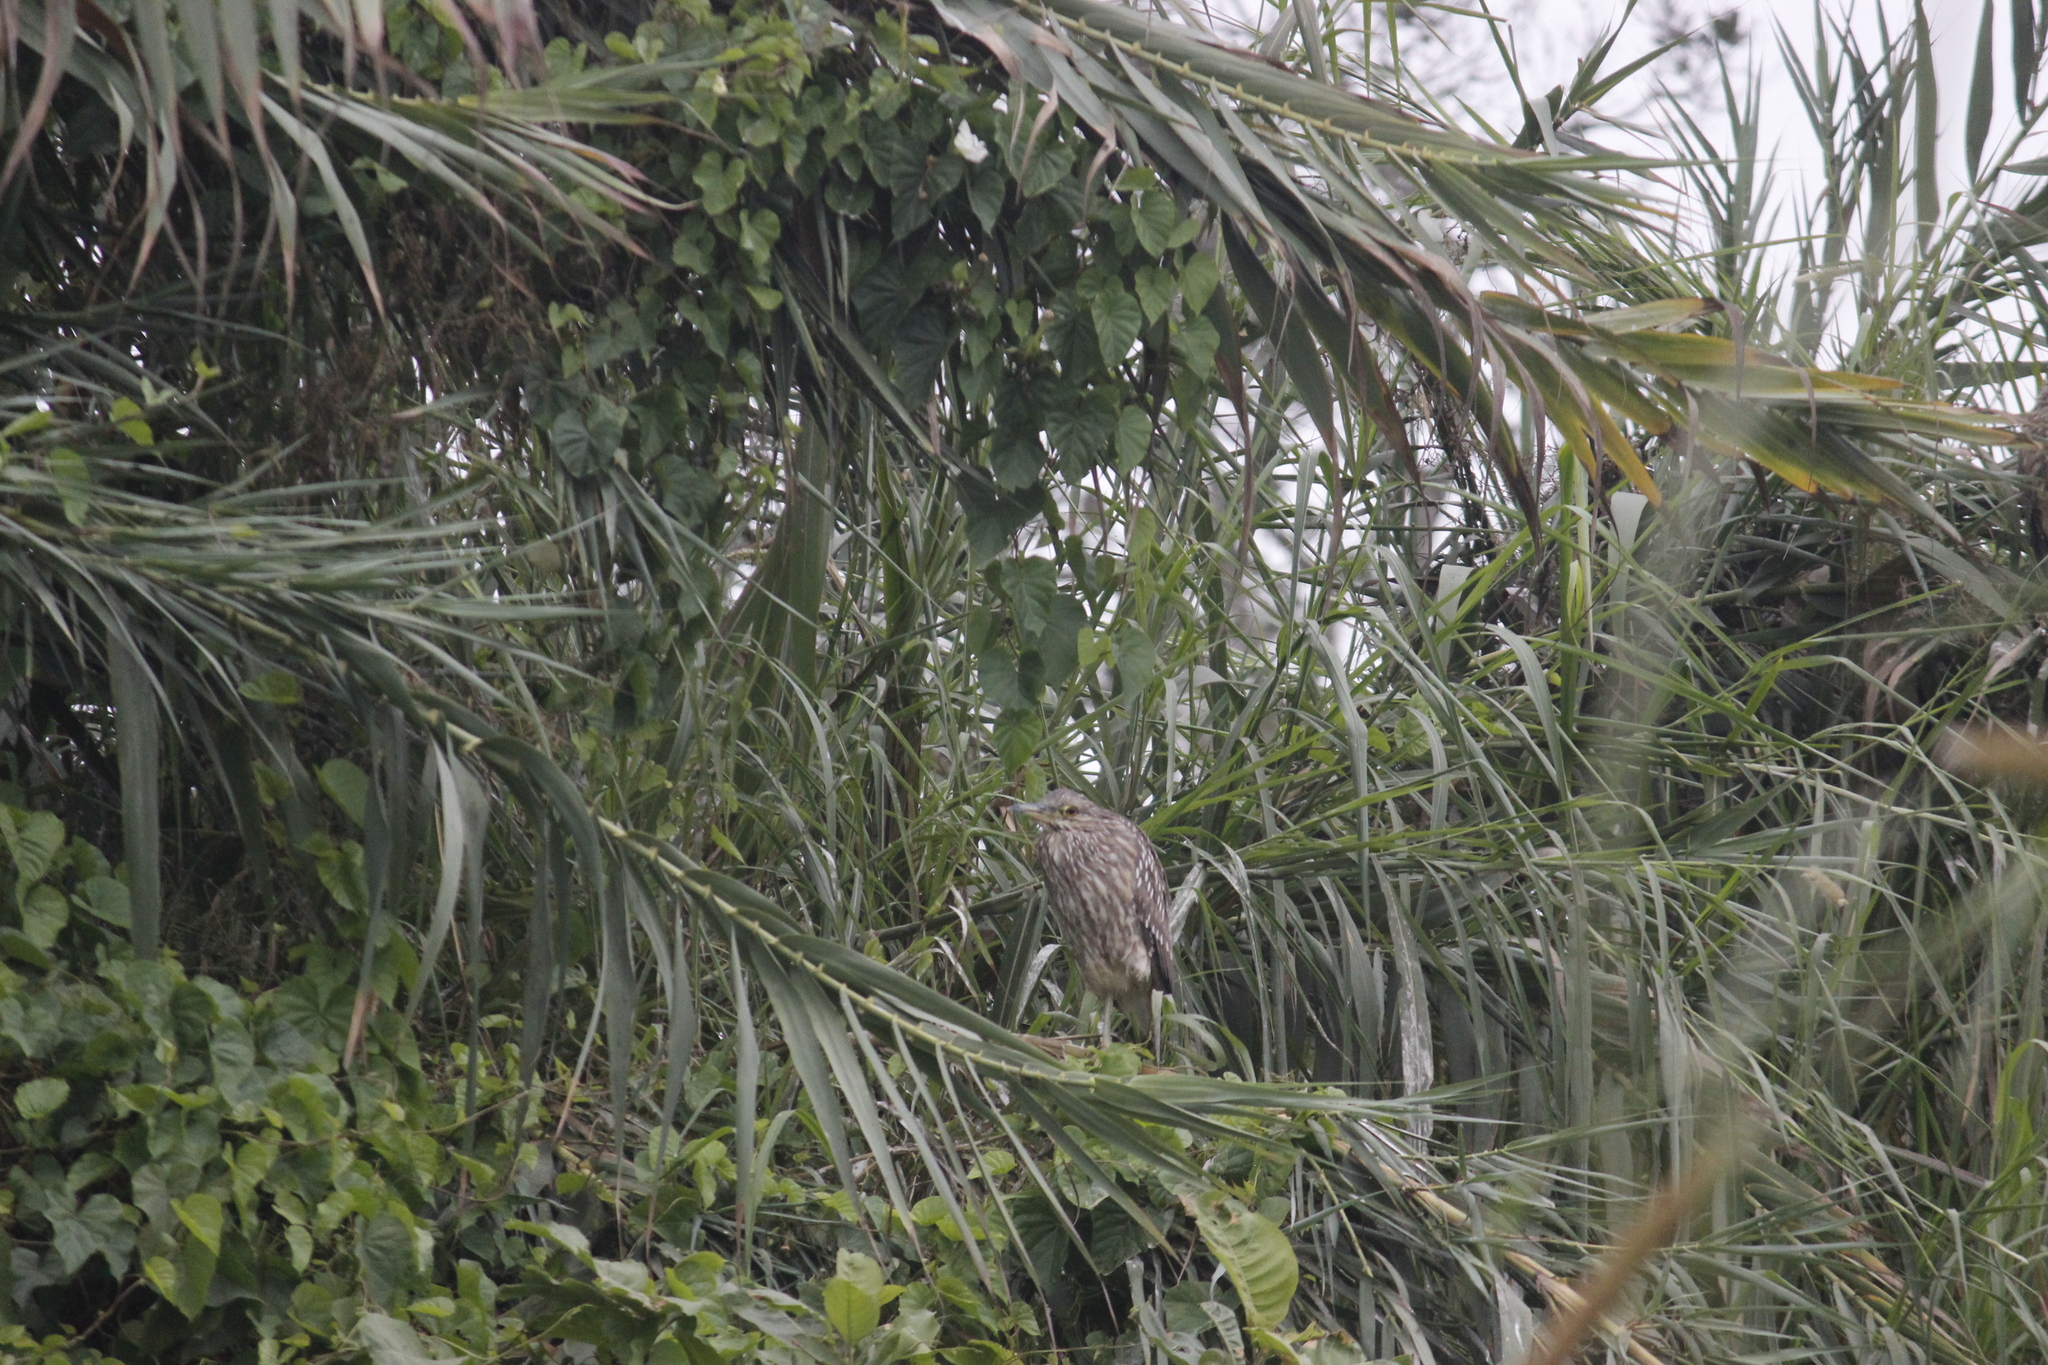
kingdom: Animalia
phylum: Chordata
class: Aves
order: Pelecaniformes
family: Ardeidae
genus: Nycticorax
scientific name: Nycticorax nycticorax
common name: Black-crowned night heron
